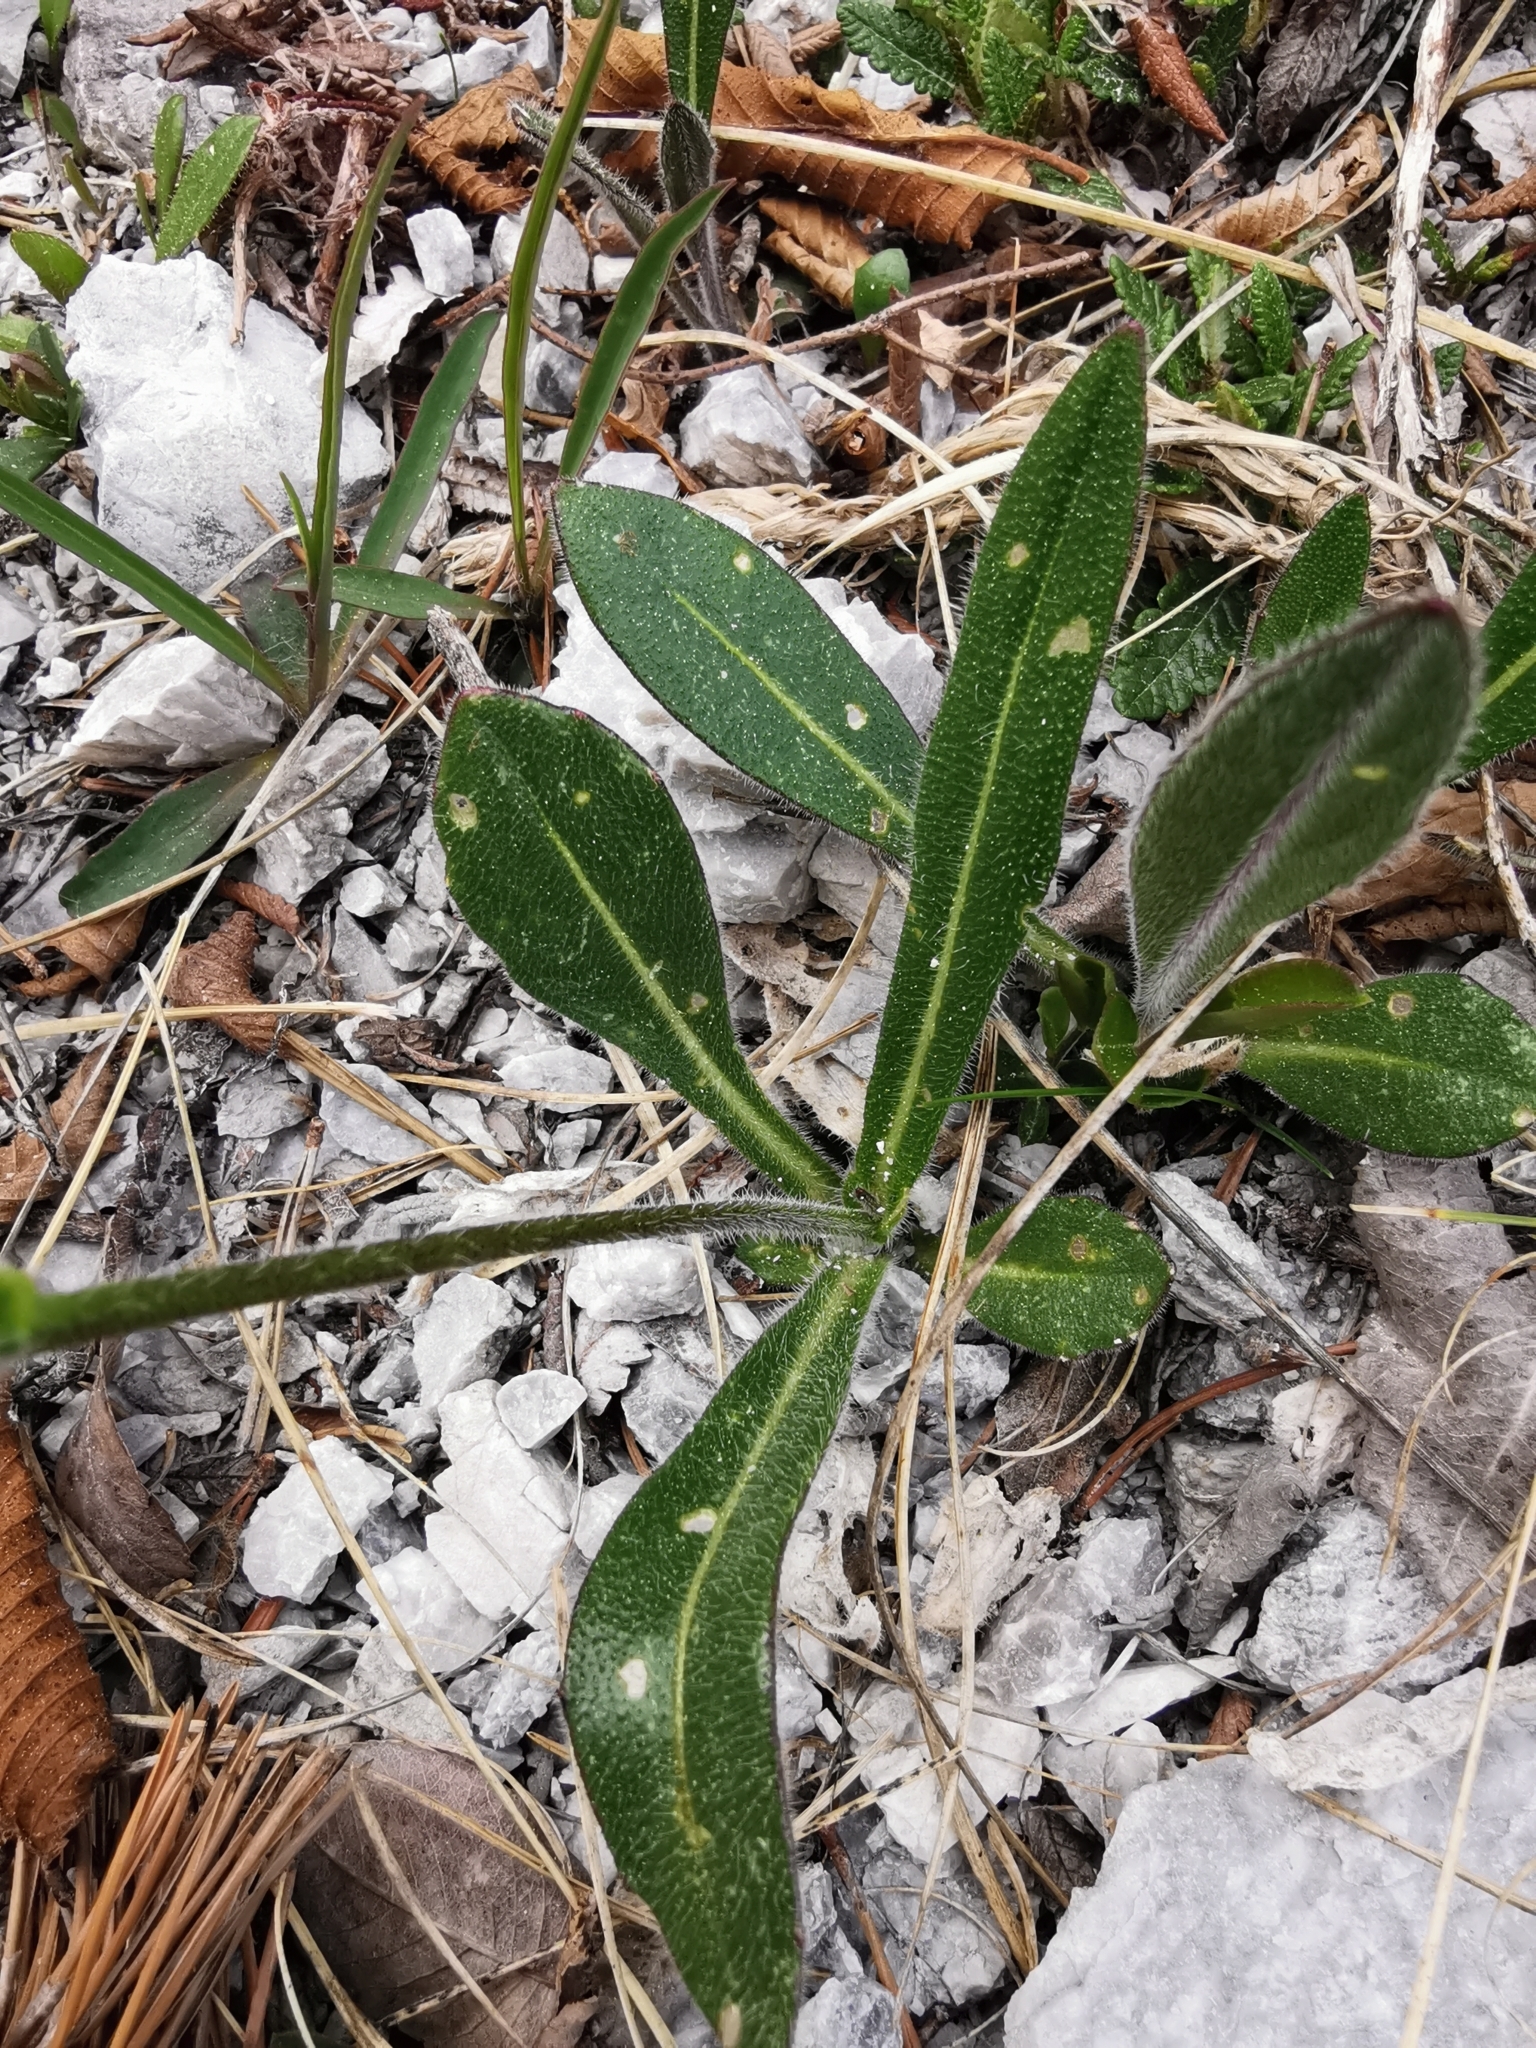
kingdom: Plantae
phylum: Tracheophyta
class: Magnoliopsida
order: Brassicales
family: Brassicaceae
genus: Biscutella
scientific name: Biscutella laevigata
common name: Buckler mustard
